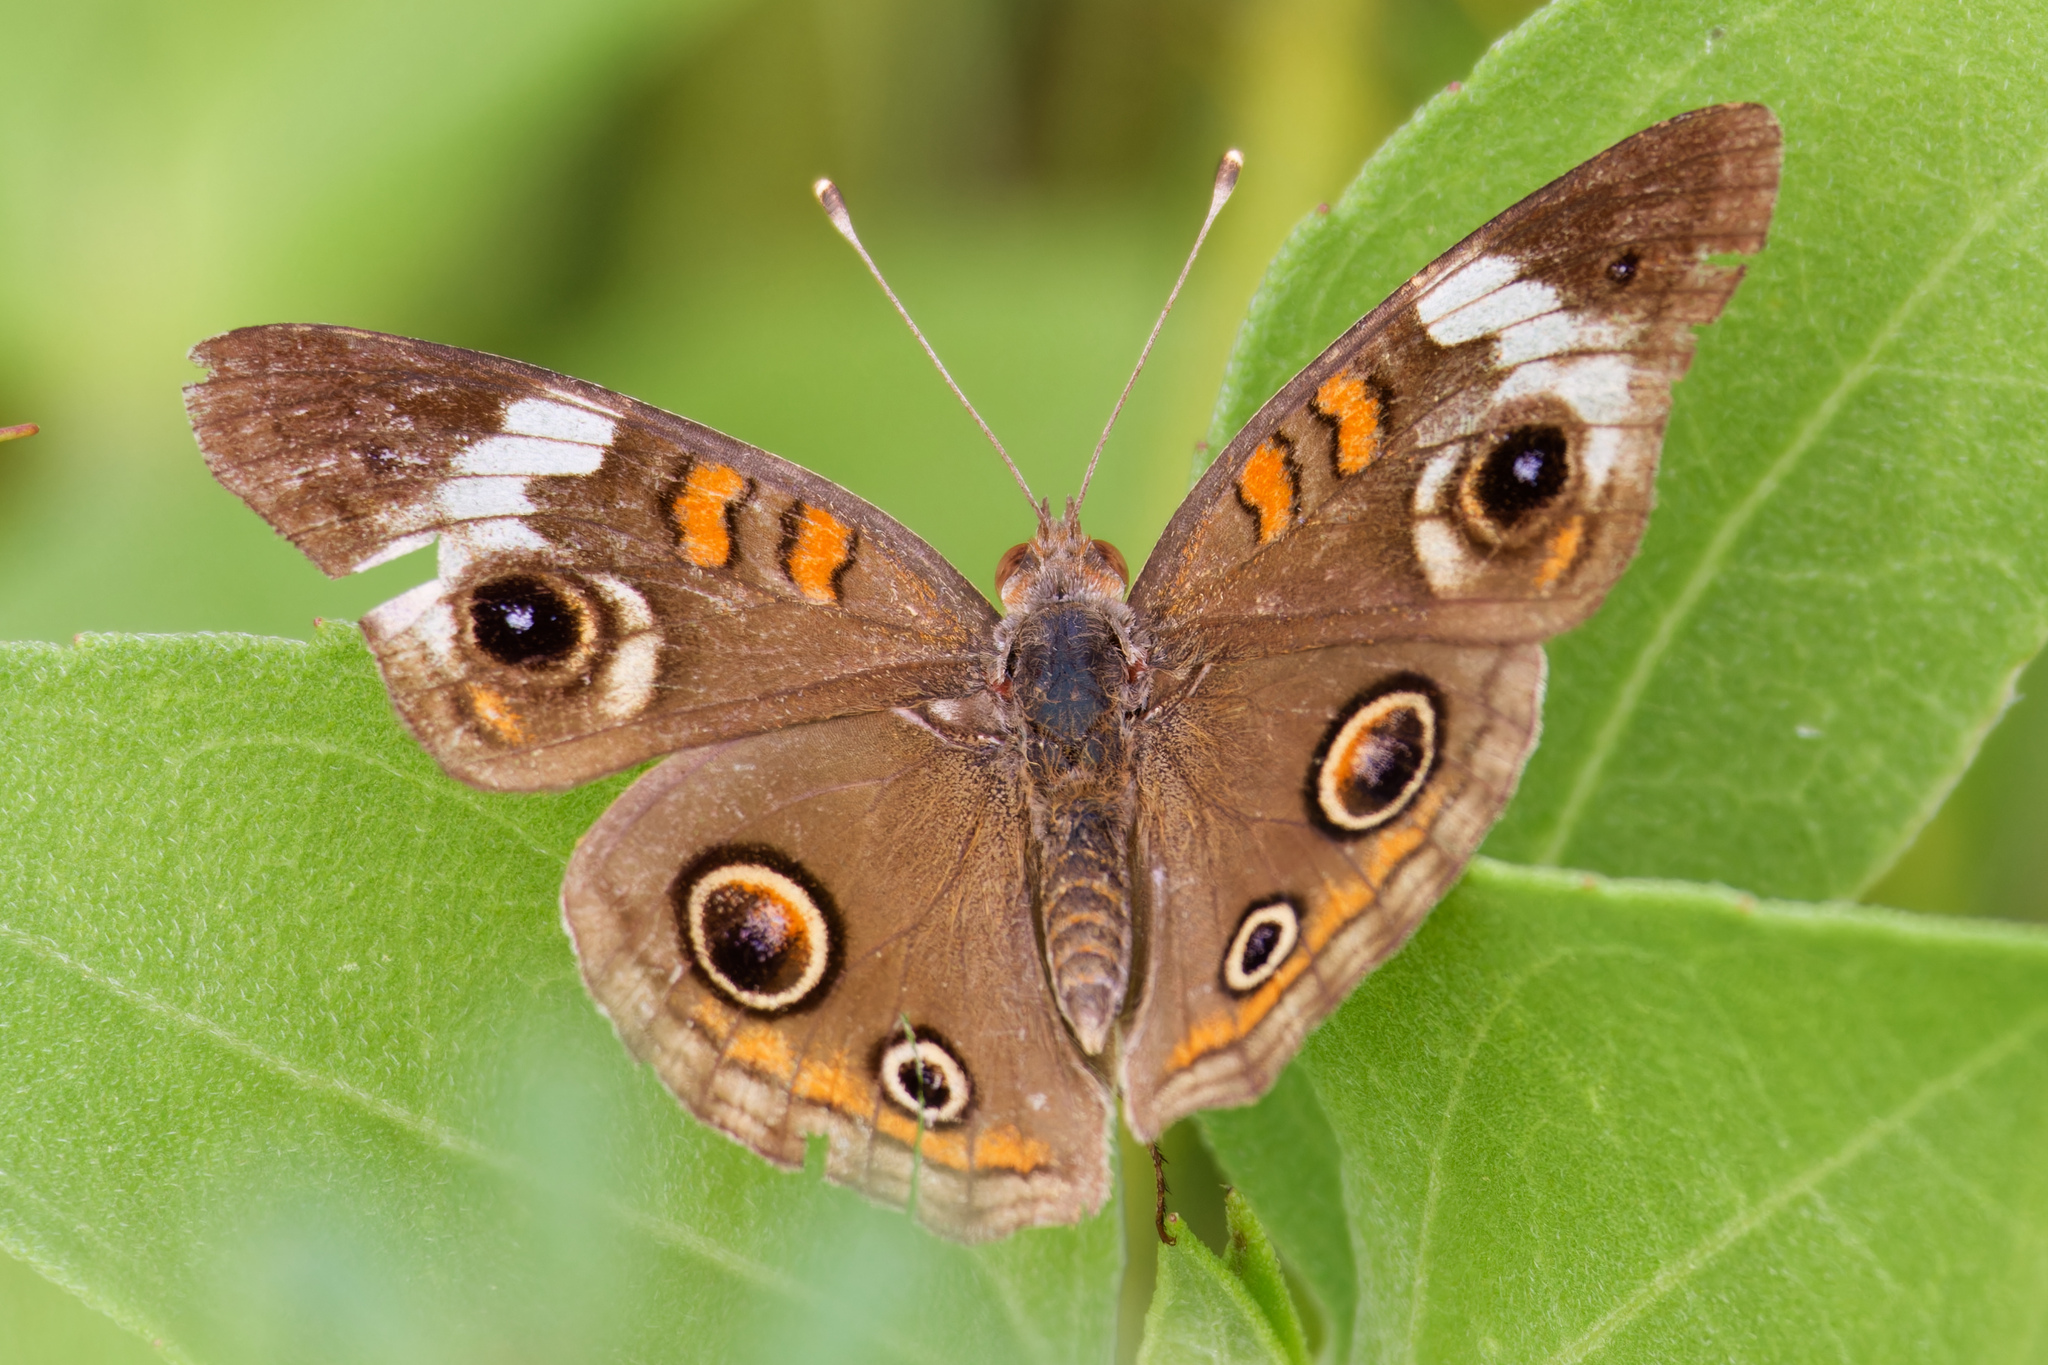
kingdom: Animalia
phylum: Arthropoda
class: Insecta
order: Lepidoptera
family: Nymphalidae
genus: Junonia
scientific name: Junonia coenia
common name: Common buckeye
